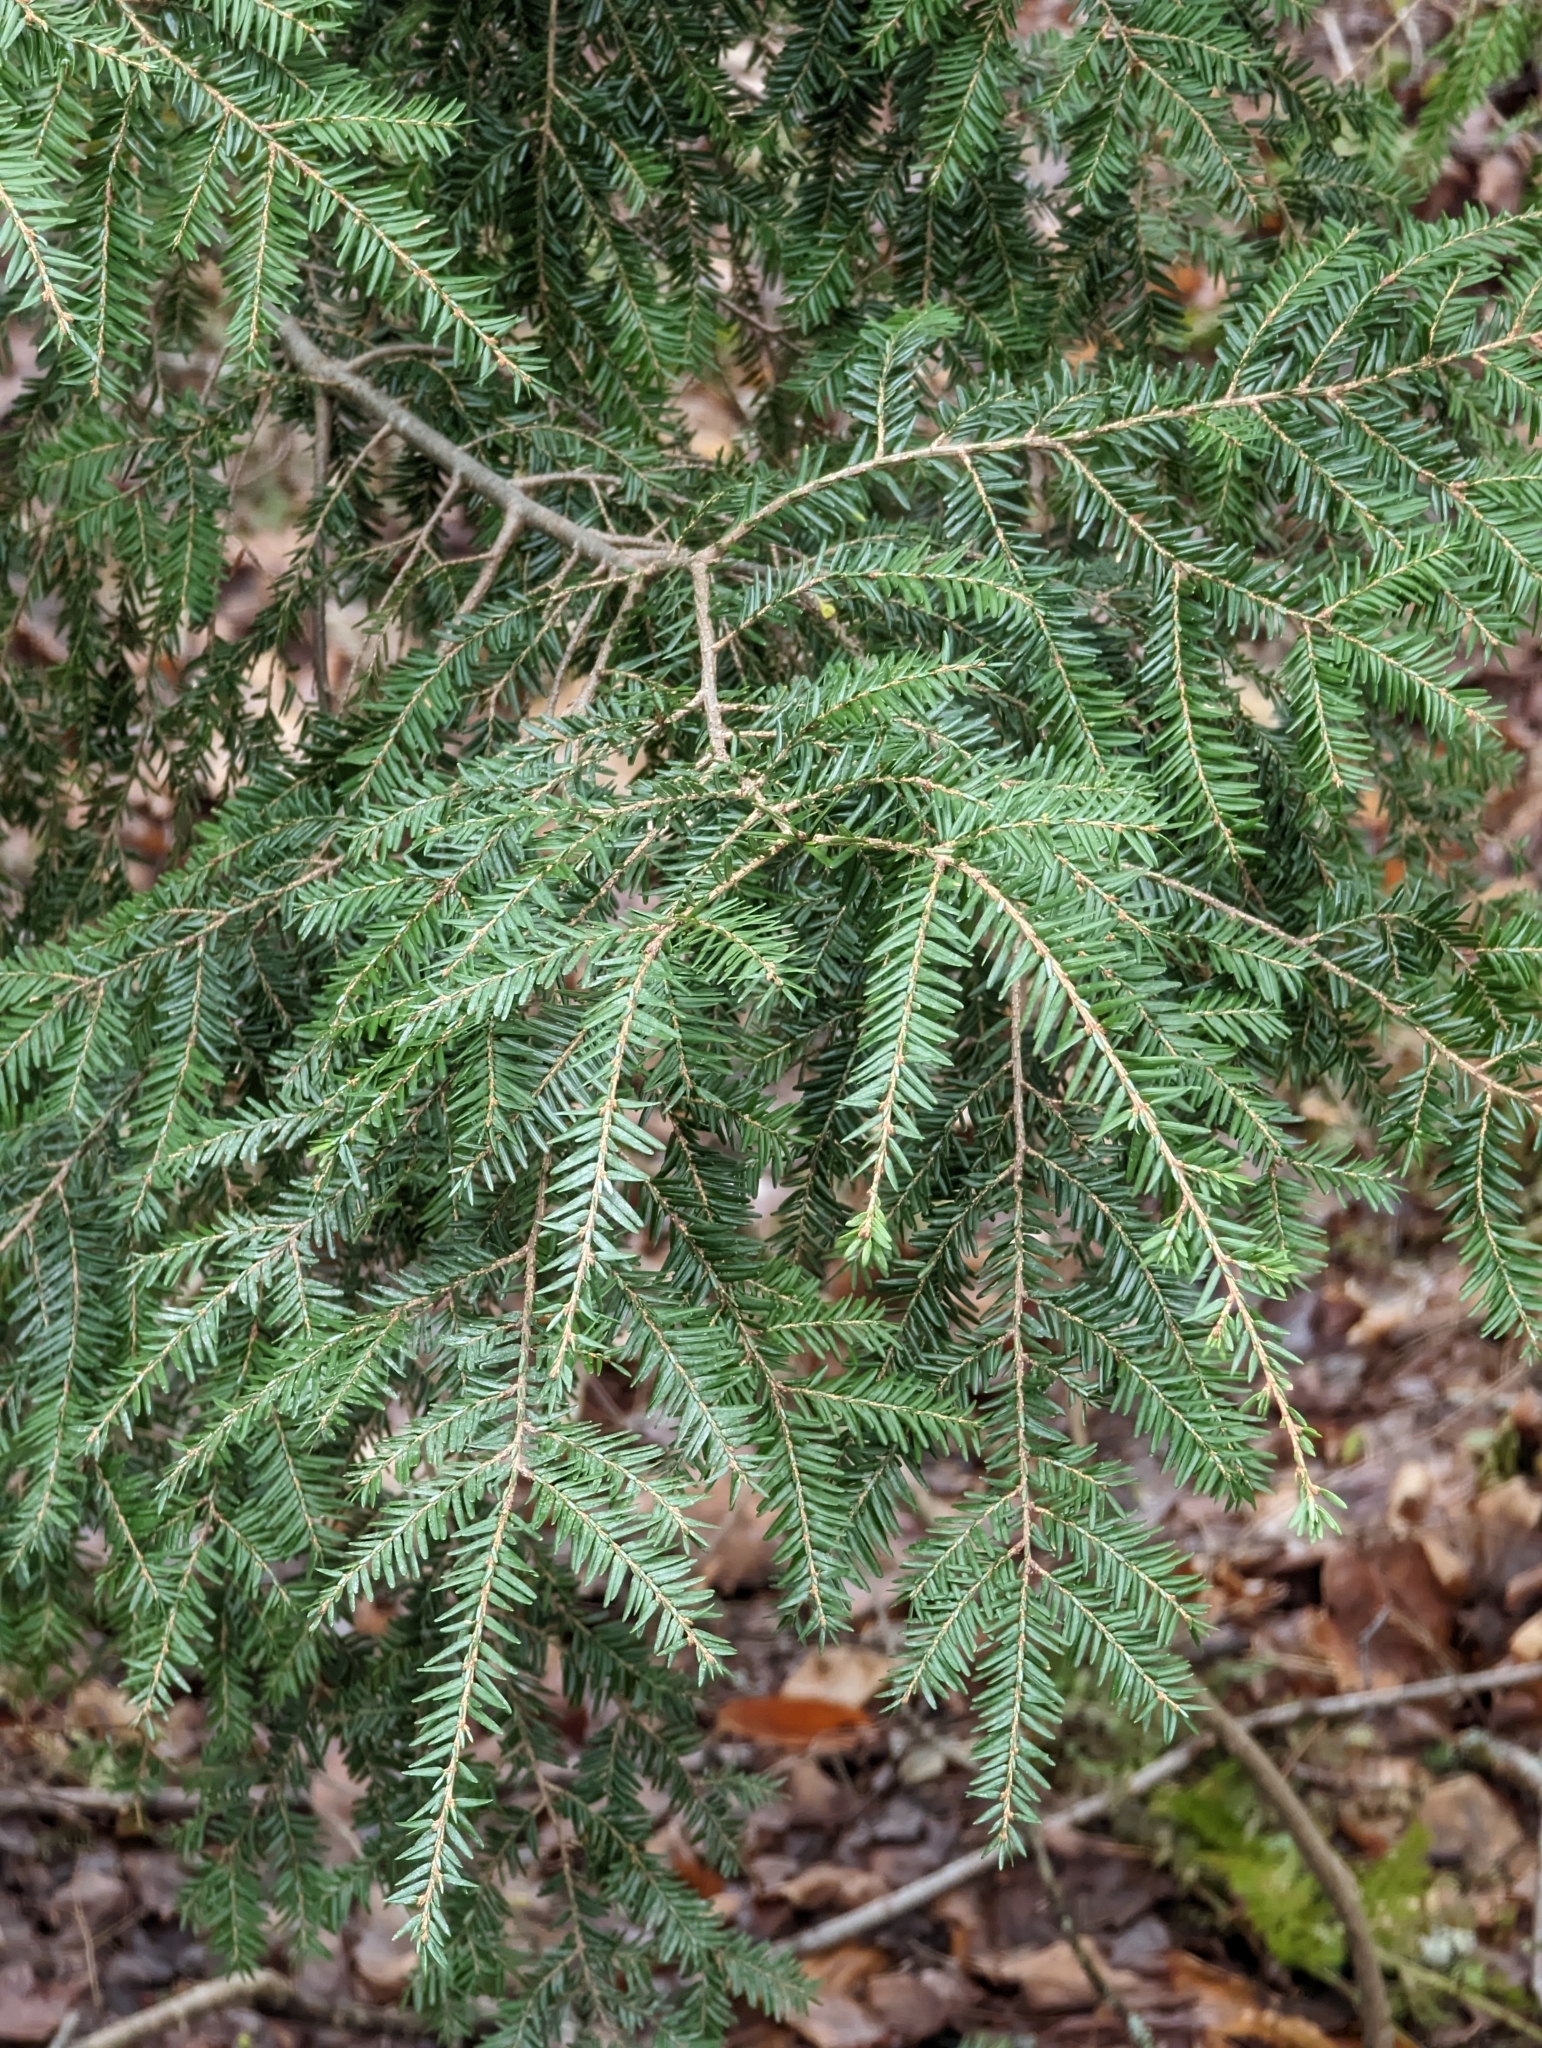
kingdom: Plantae
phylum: Tracheophyta
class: Pinopsida
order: Pinales
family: Pinaceae
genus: Tsuga
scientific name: Tsuga canadensis
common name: Eastern hemlock
